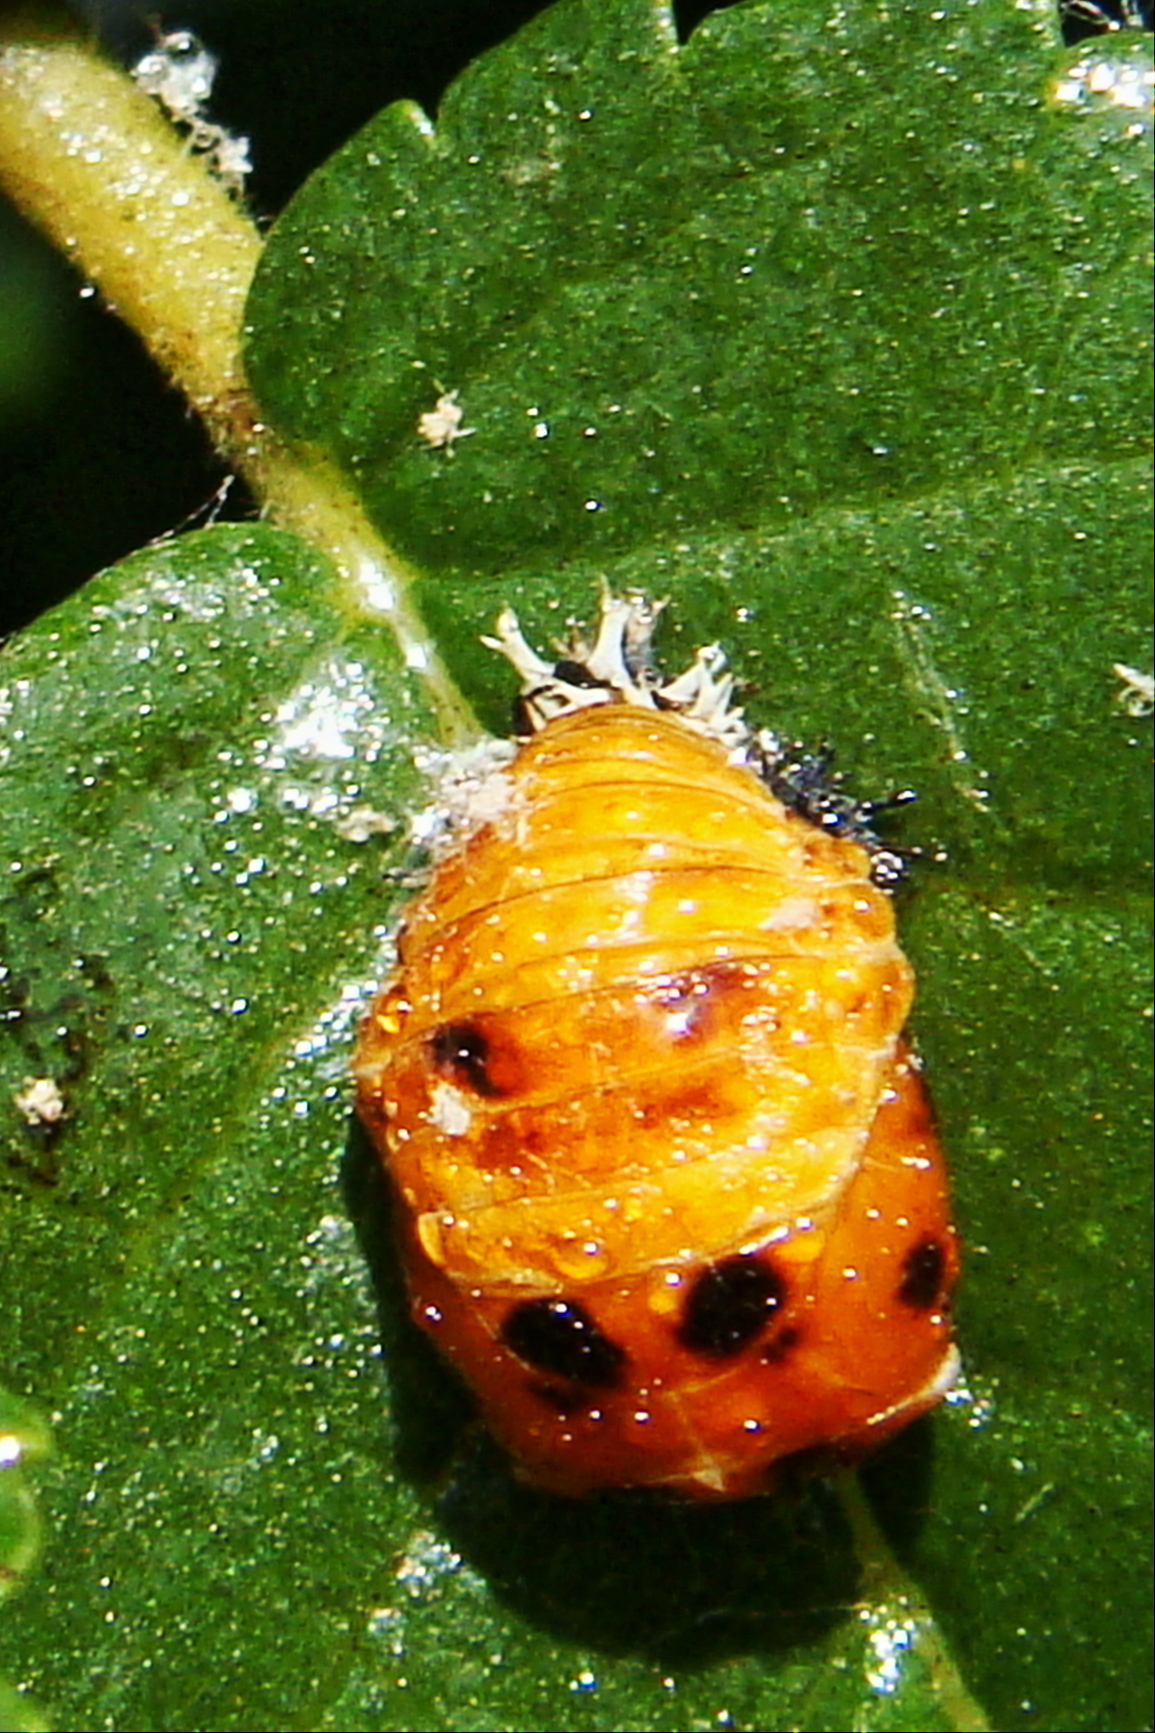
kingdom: Animalia
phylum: Arthropoda
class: Insecta
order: Coleoptera
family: Coccinellidae
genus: Harmonia
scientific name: Harmonia axyridis
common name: Harlequin ladybird
